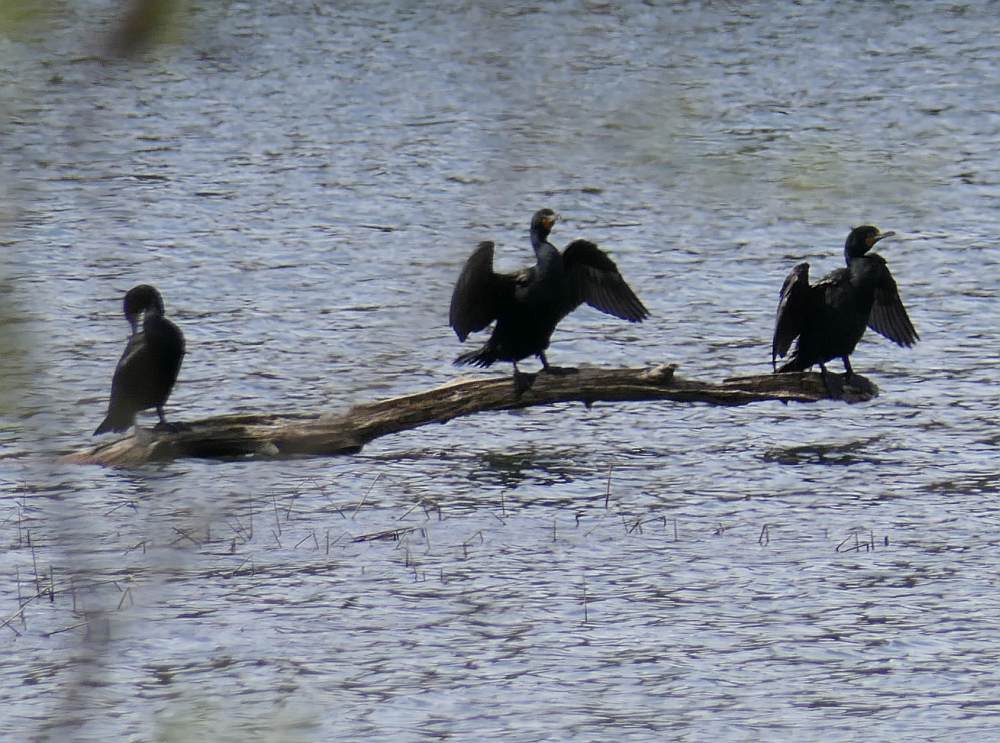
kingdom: Animalia
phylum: Chordata
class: Aves
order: Suliformes
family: Phalacrocoracidae
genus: Phalacrocorax
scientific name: Phalacrocorax auritus
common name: Double-crested cormorant
